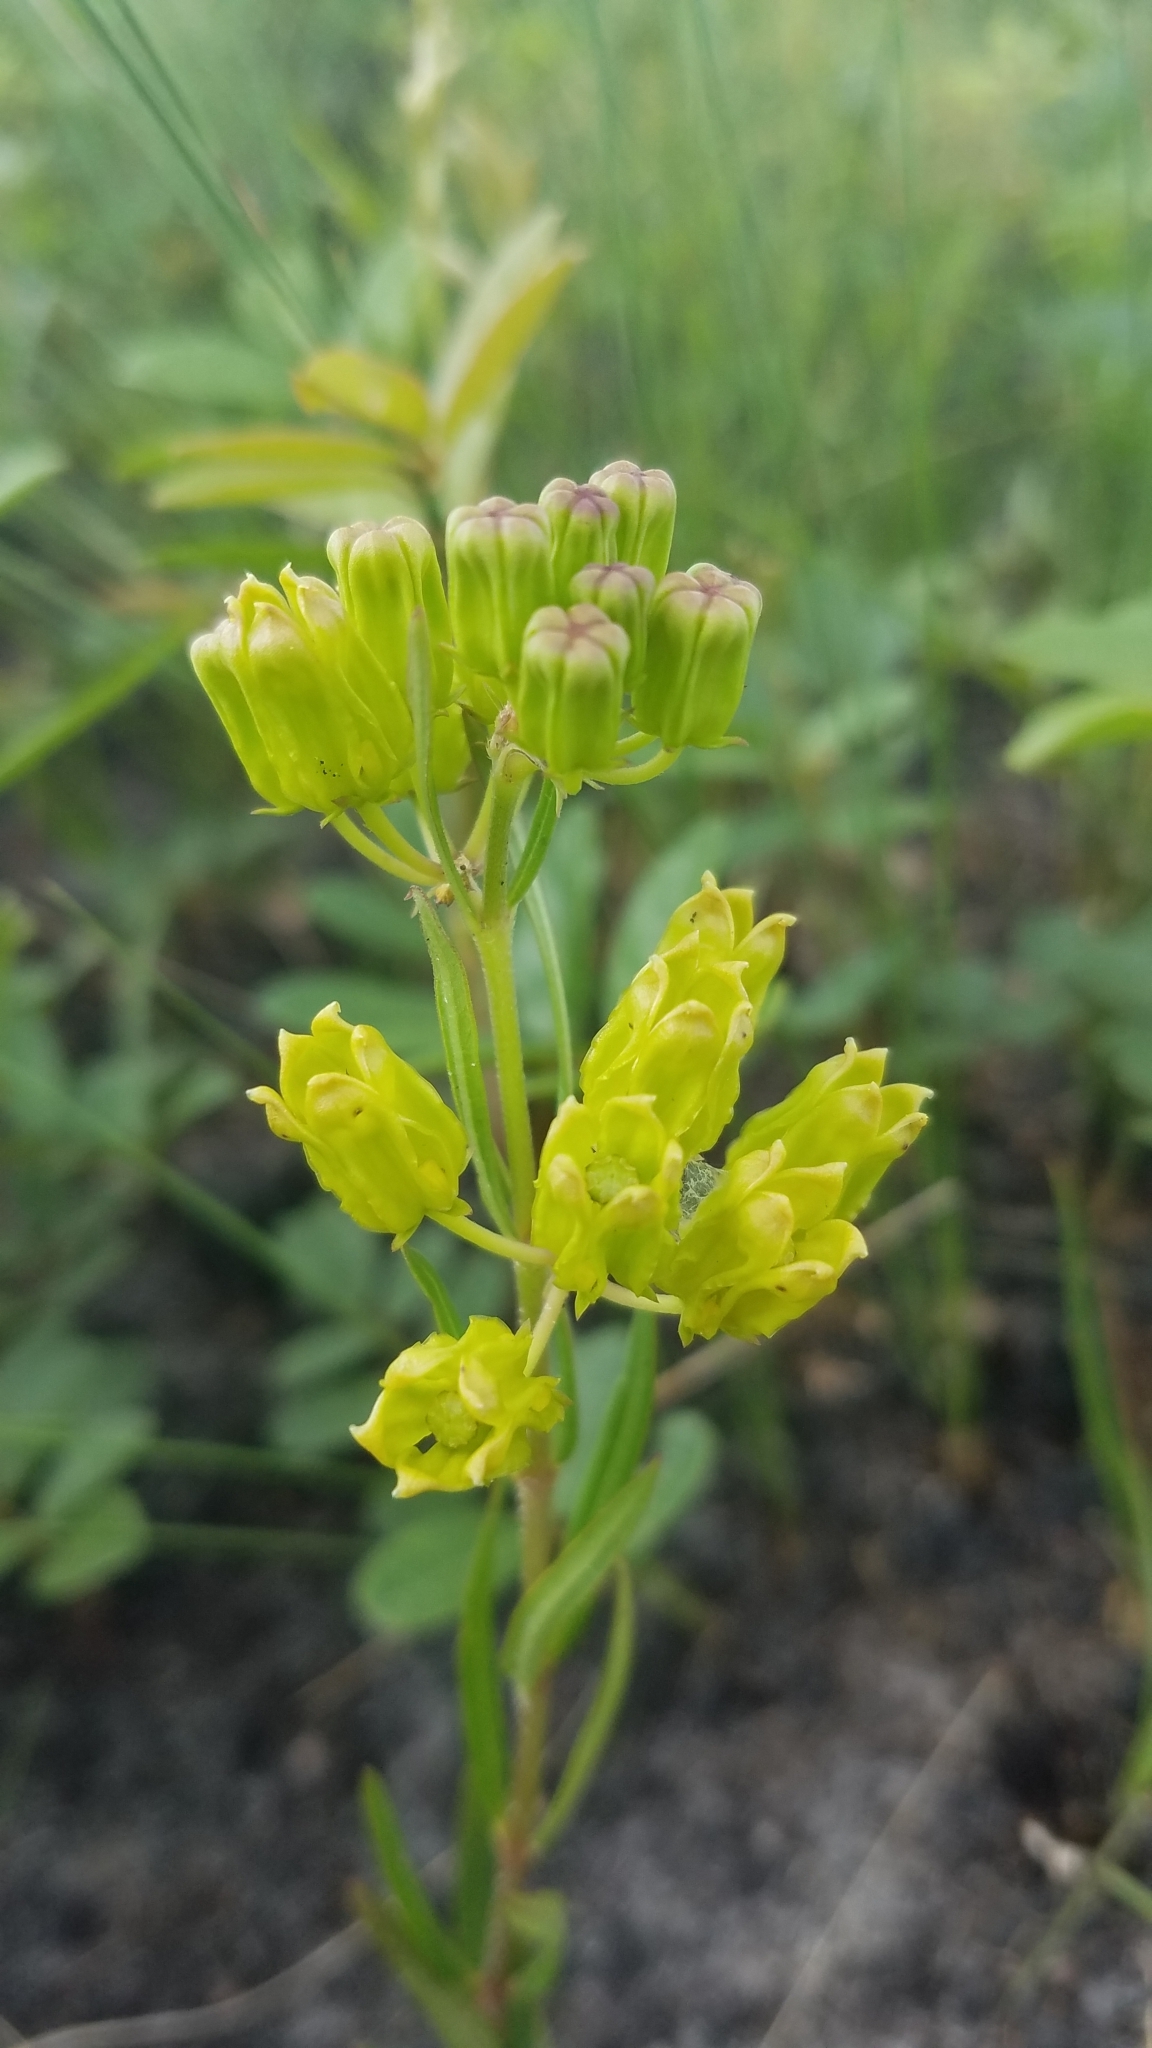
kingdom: Plantae
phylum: Tracheophyta
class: Magnoliopsida
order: Gentianales
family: Apocynaceae
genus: Asclepias
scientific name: Asclepias pedicellata
